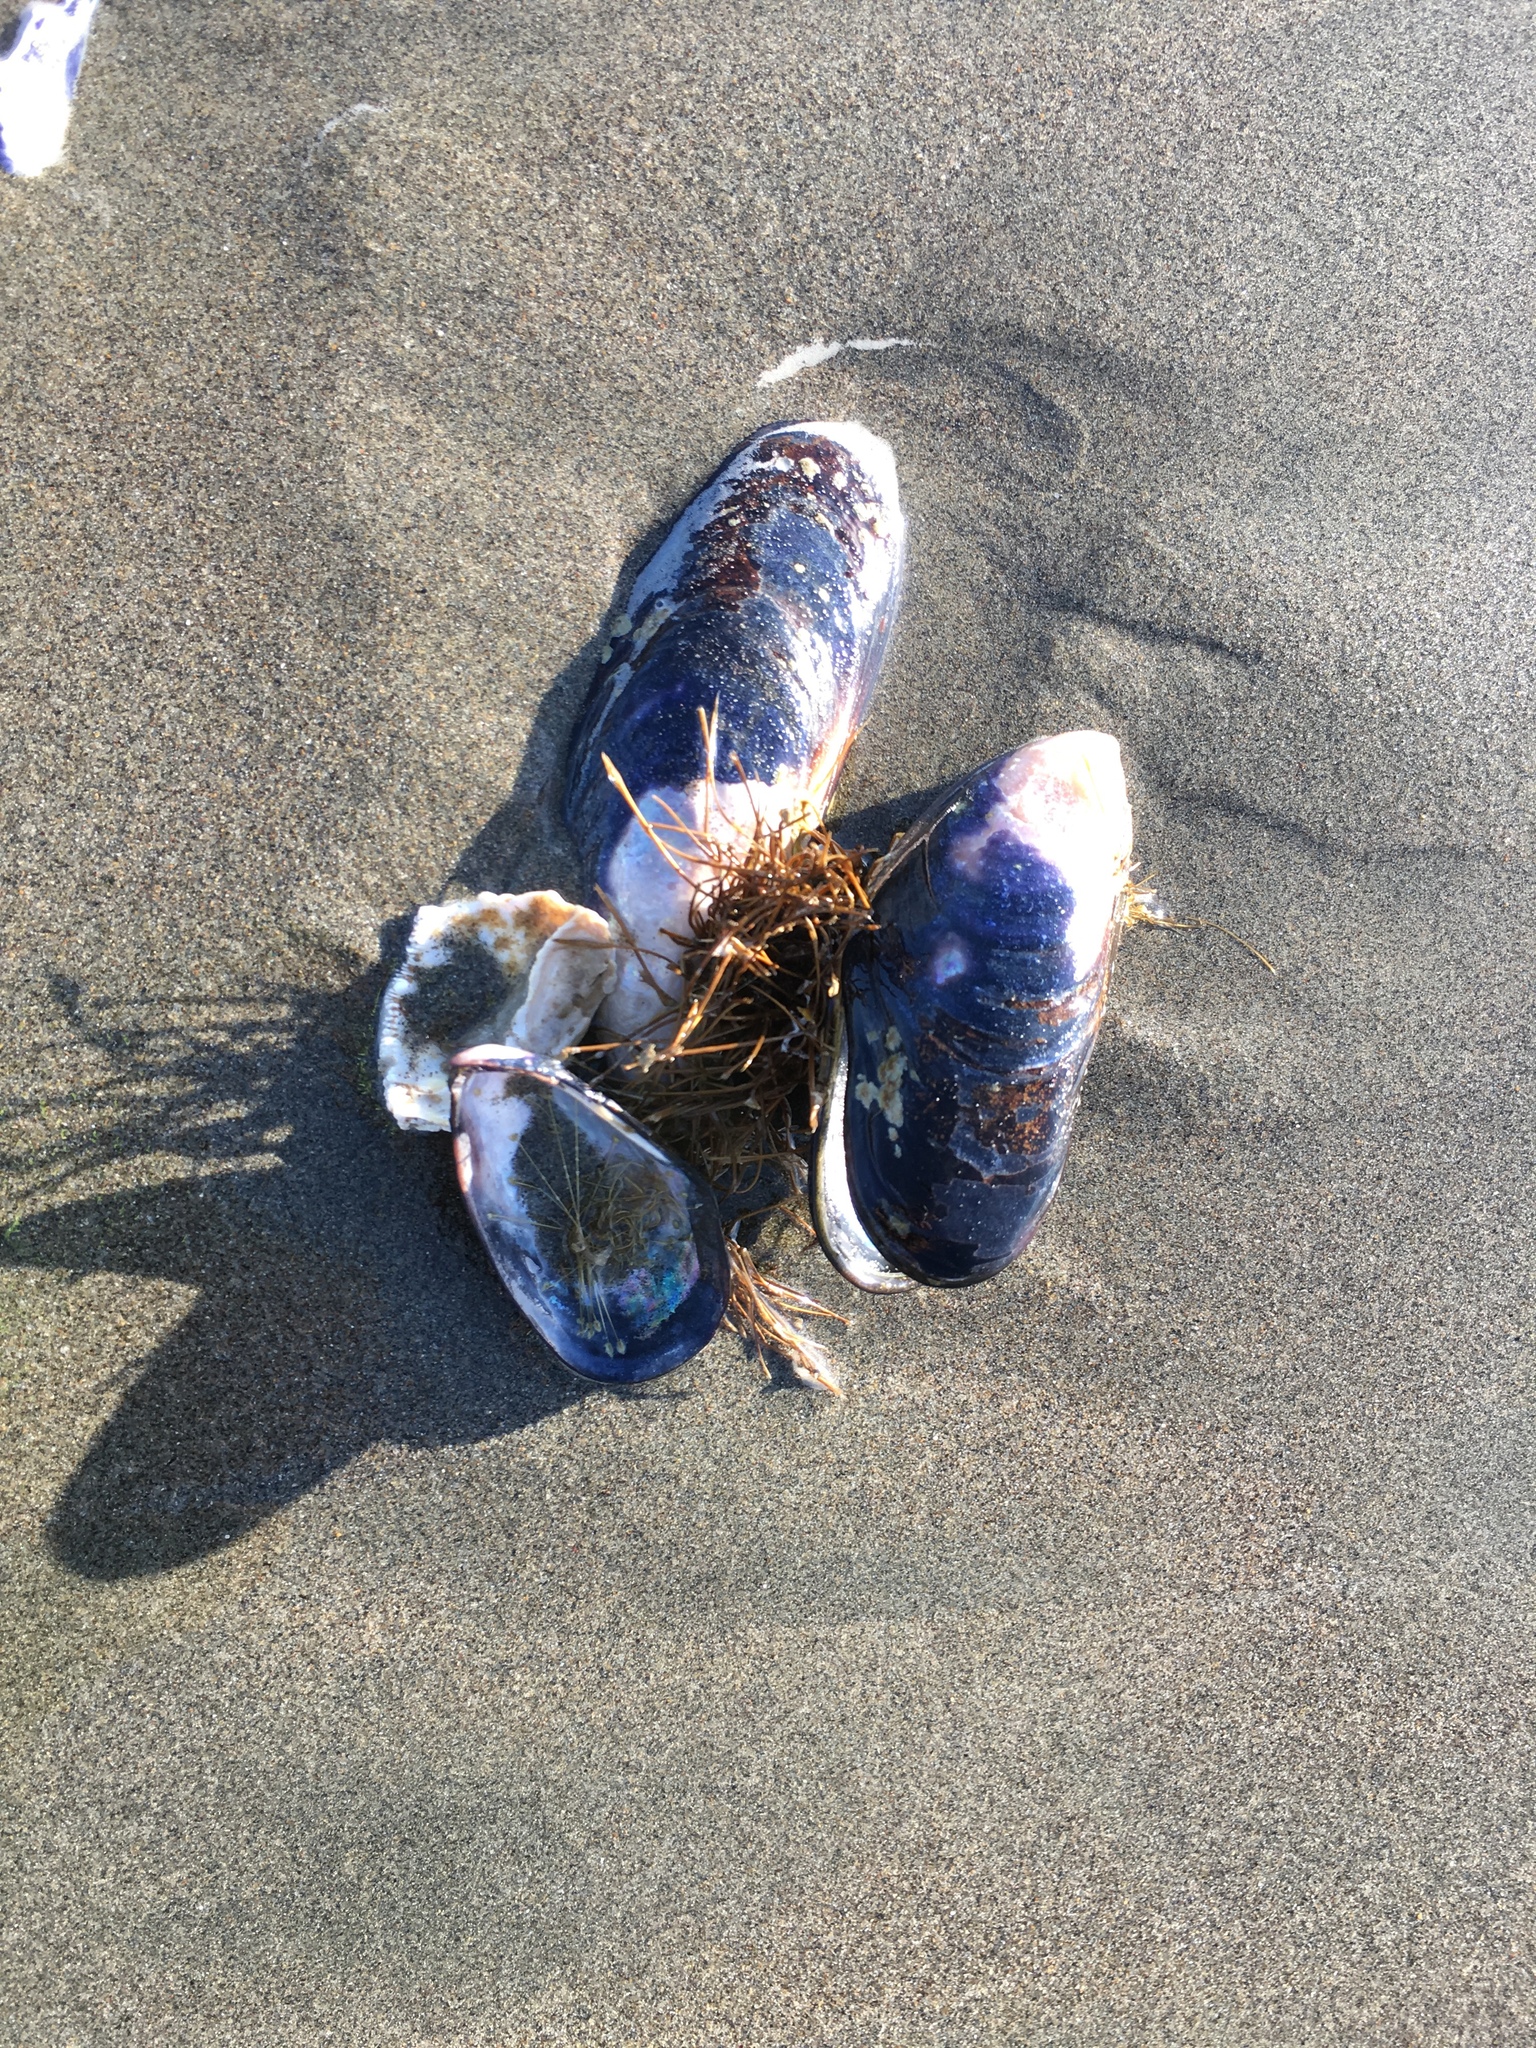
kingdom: Animalia
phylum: Mollusca
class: Bivalvia
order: Mytilida
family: Mytilidae
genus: Mytilus
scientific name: Mytilus californianus
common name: California mussel
